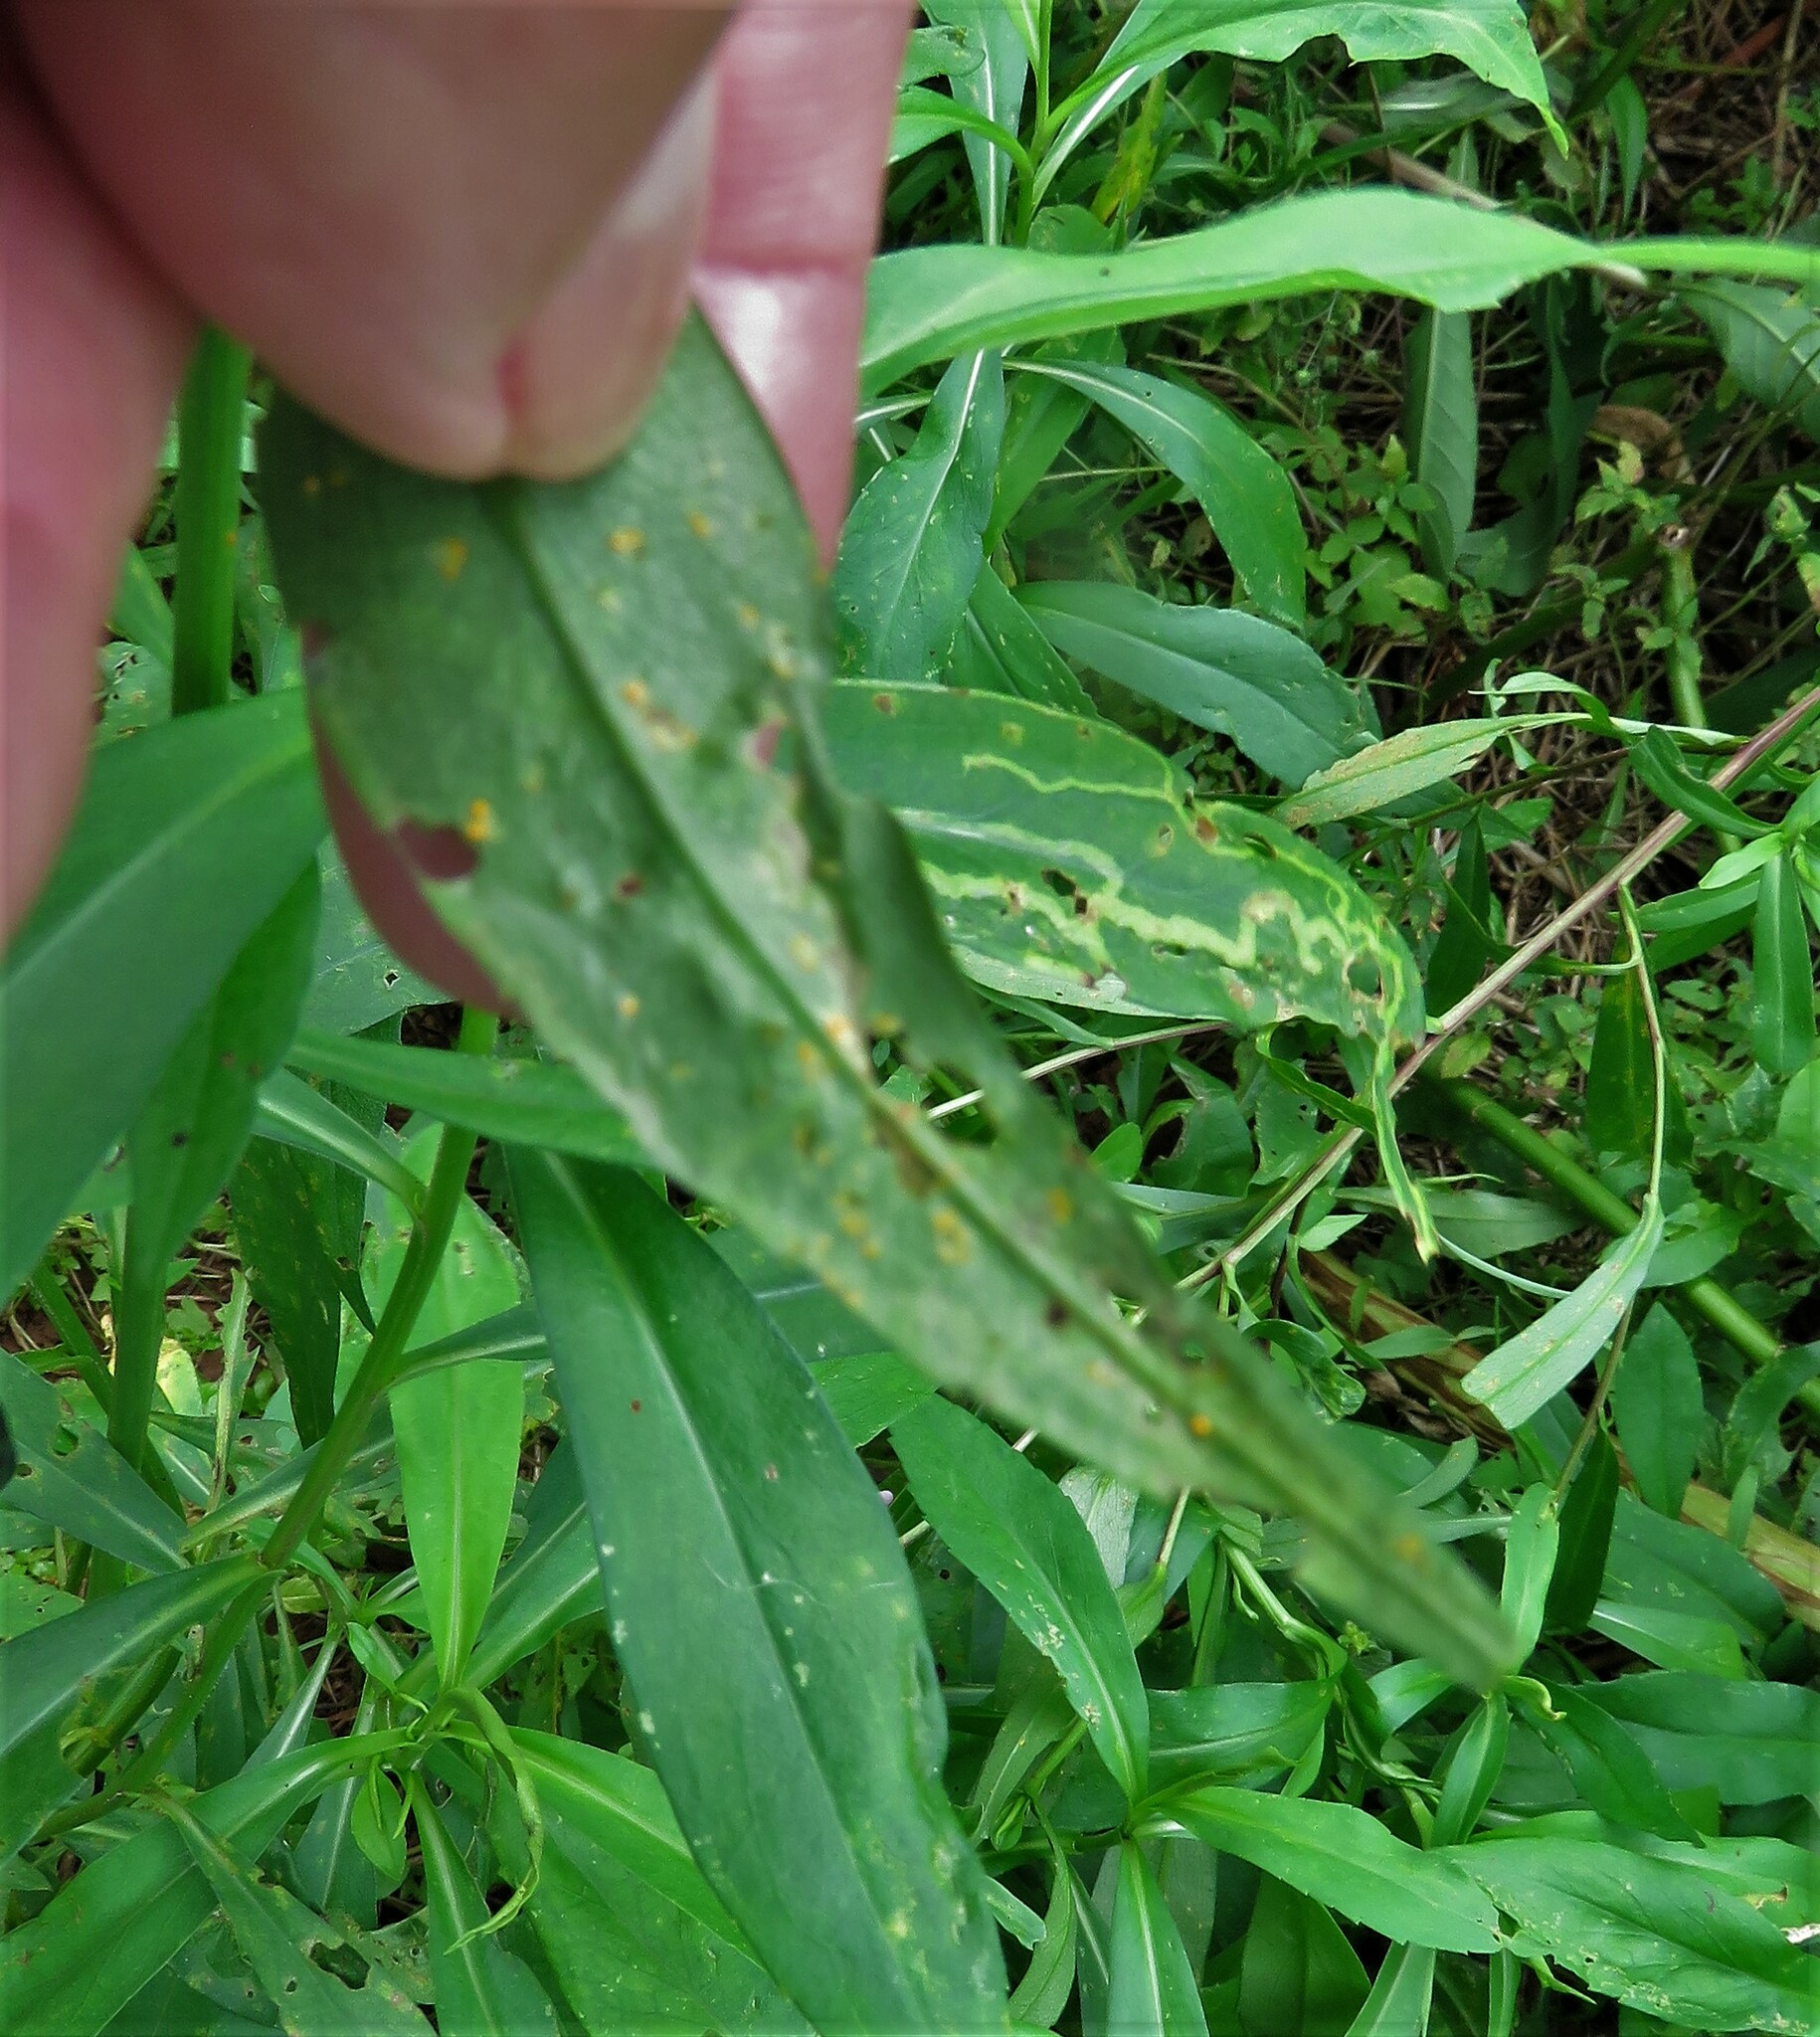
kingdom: Animalia
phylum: Arthropoda
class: Insecta
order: Diptera
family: Agromyzidae
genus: Ophiomyia
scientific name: Ophiomyia parda
